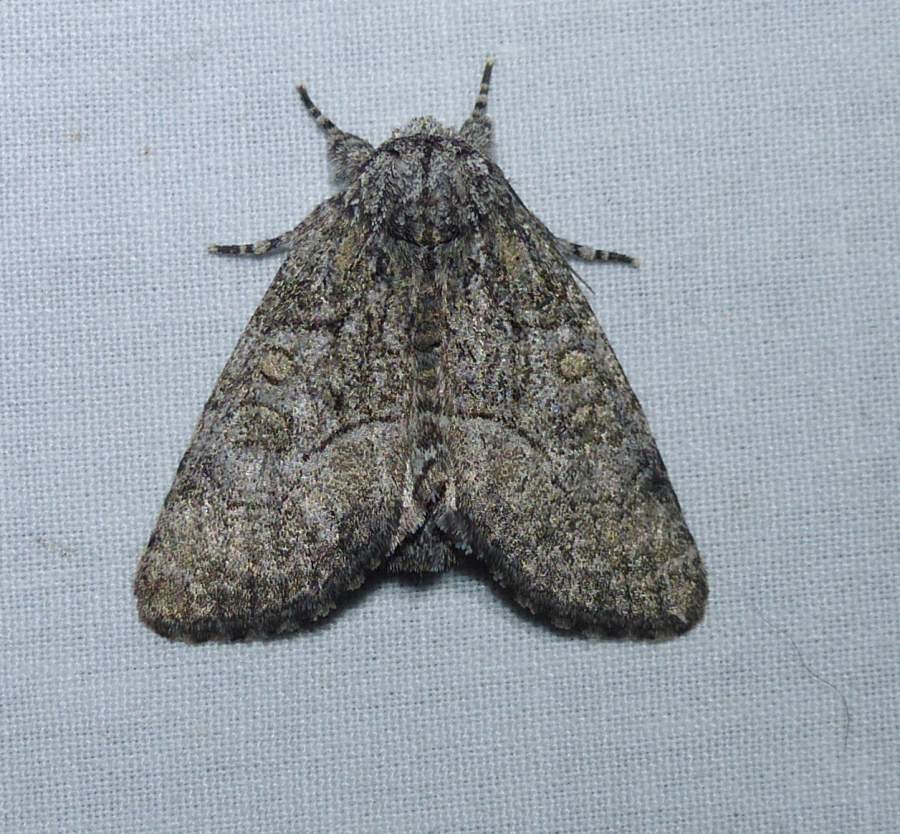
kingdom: Animalia
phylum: Arthropoda
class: Insecta
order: Lepidoptera
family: Noctuidae
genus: Raphia
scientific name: Raphia frater
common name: Brother
